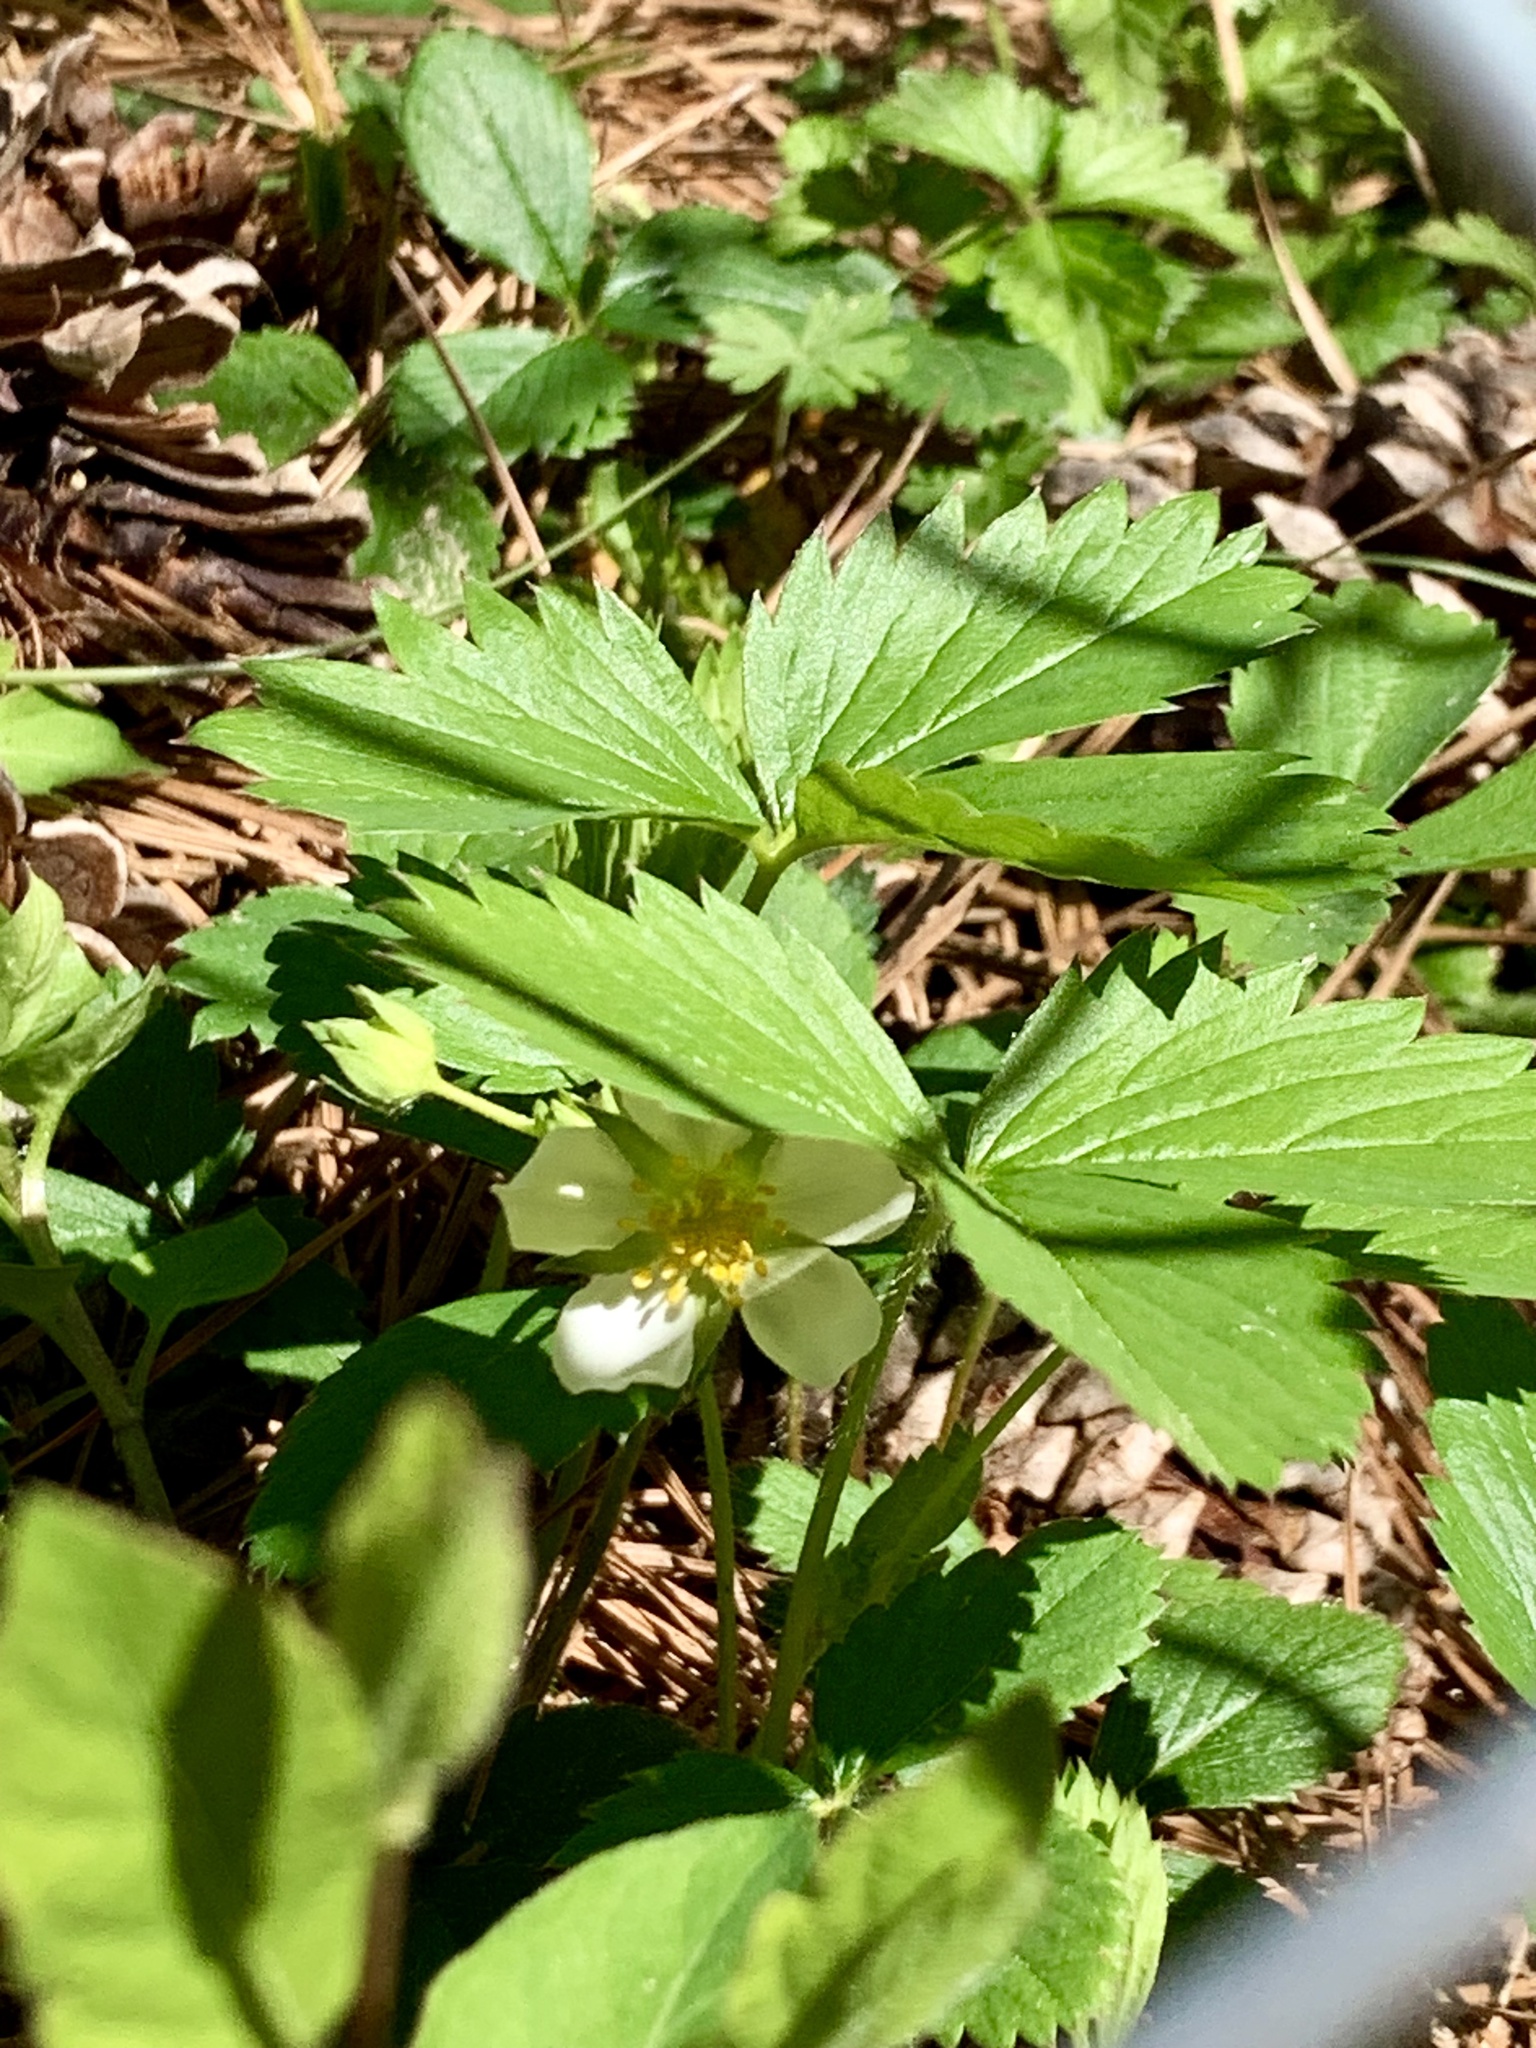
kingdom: Plantae
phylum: Tracheophyta
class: Magnoliopsida
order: Rosales
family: Rosaceae
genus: Fragaria
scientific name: Fragaria virginiana
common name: Thickleaved wild strawberry
